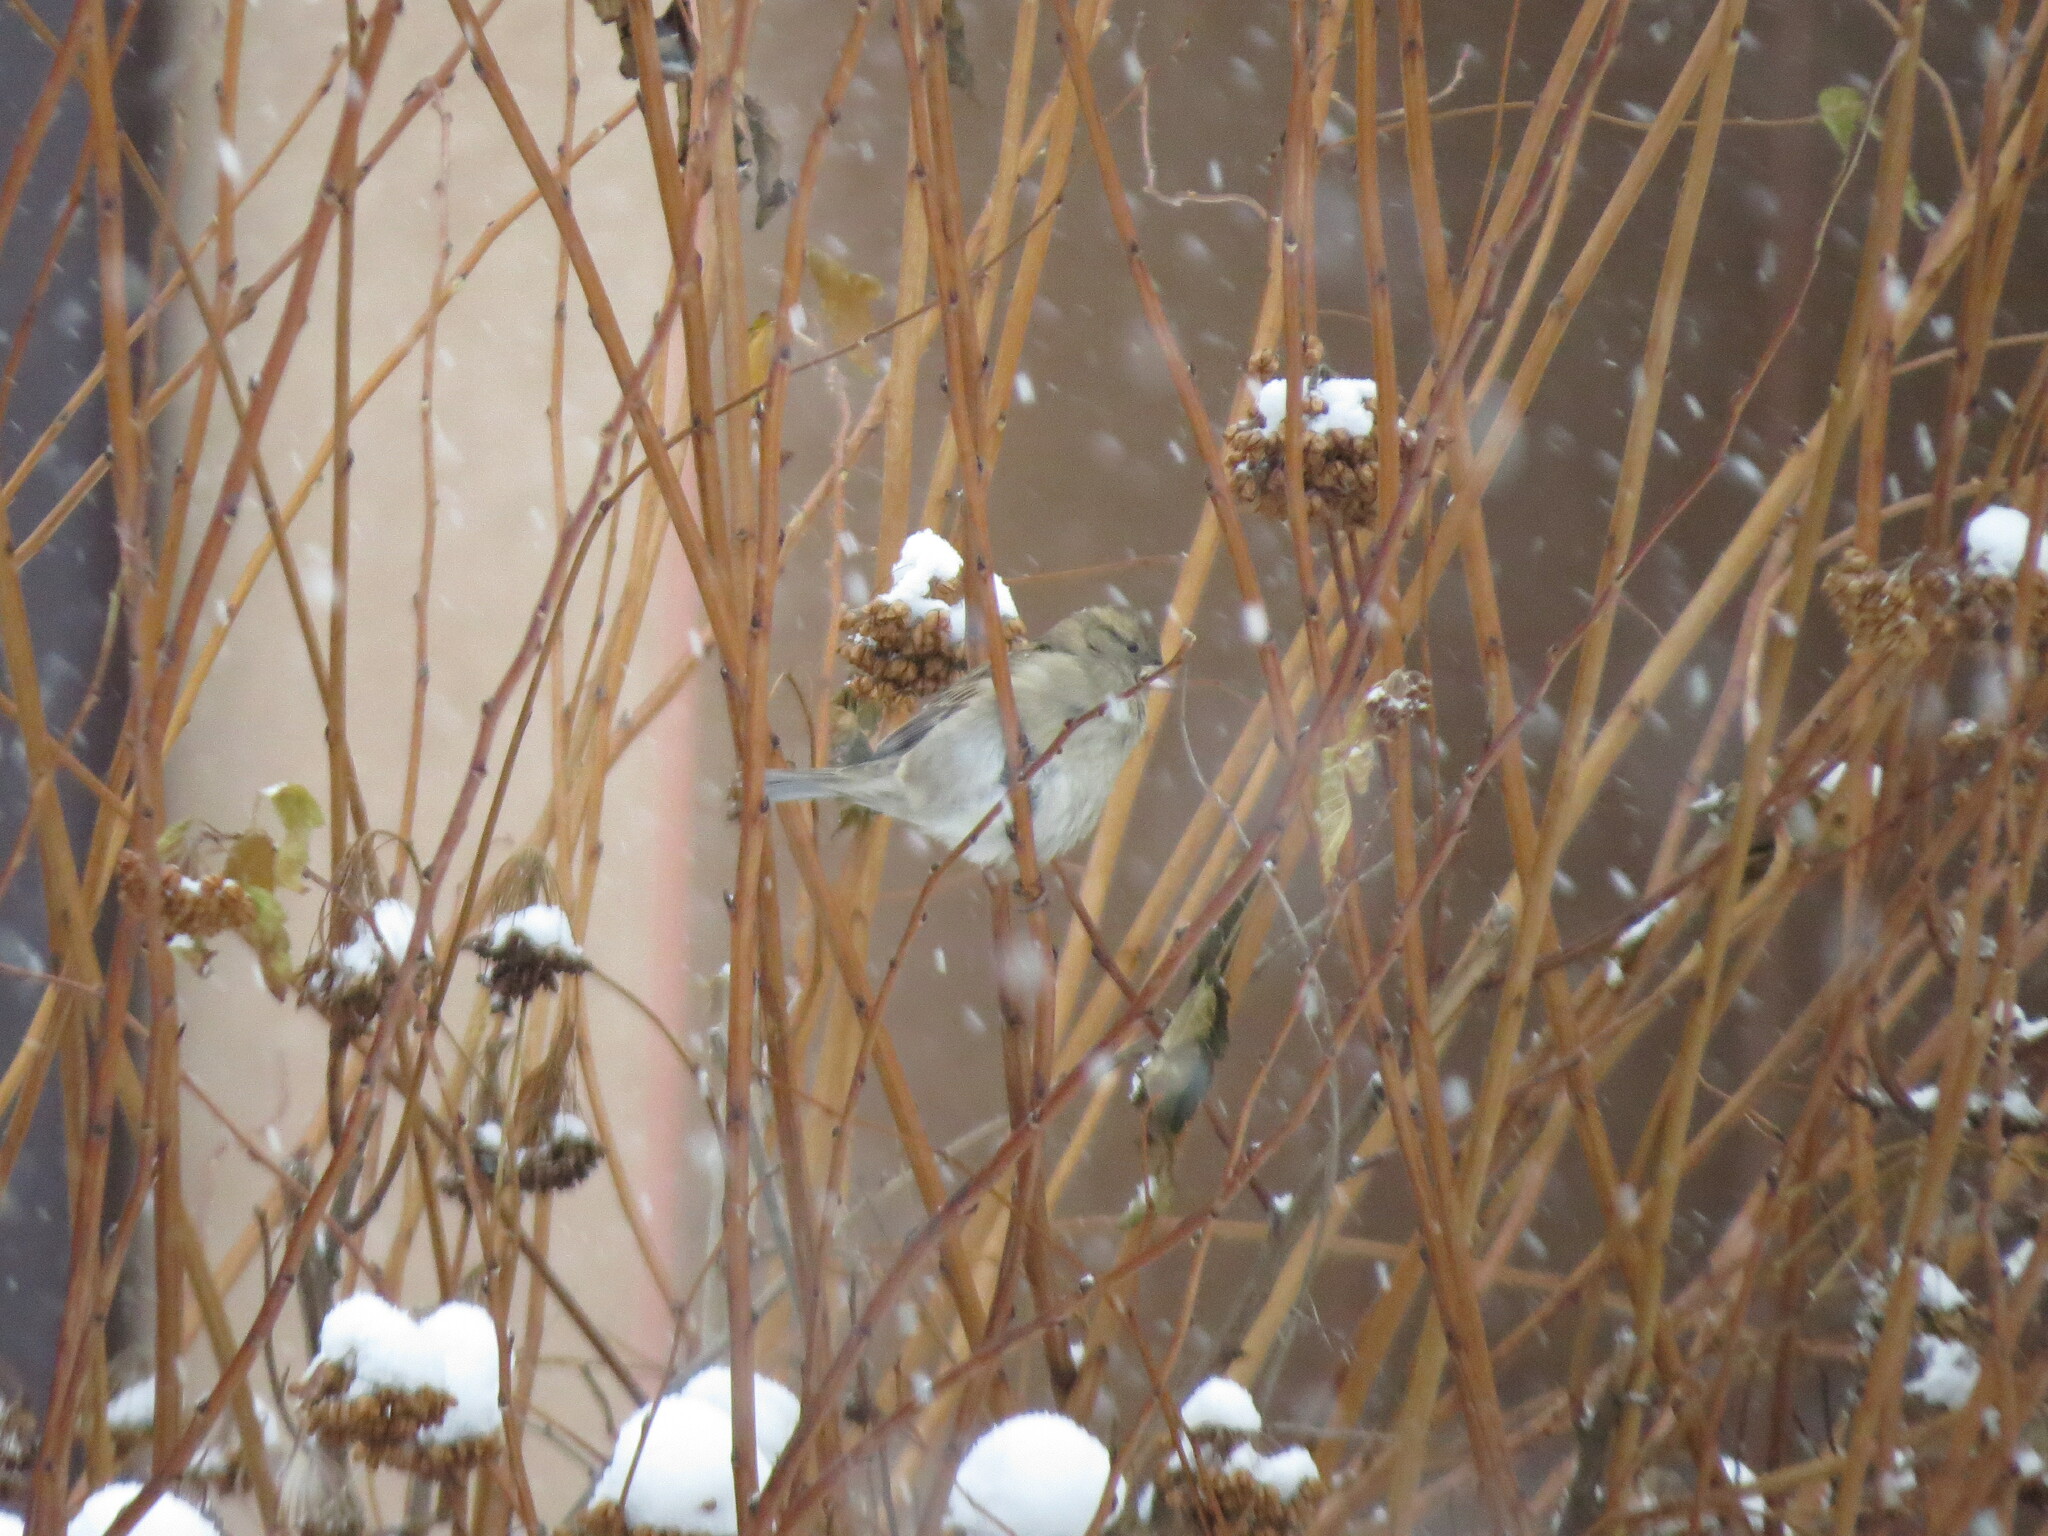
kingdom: Animalia
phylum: Chordata
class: Aves
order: Passeriformes
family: Passeridae
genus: Passer
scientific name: Passer domesticus
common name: House sparrow
